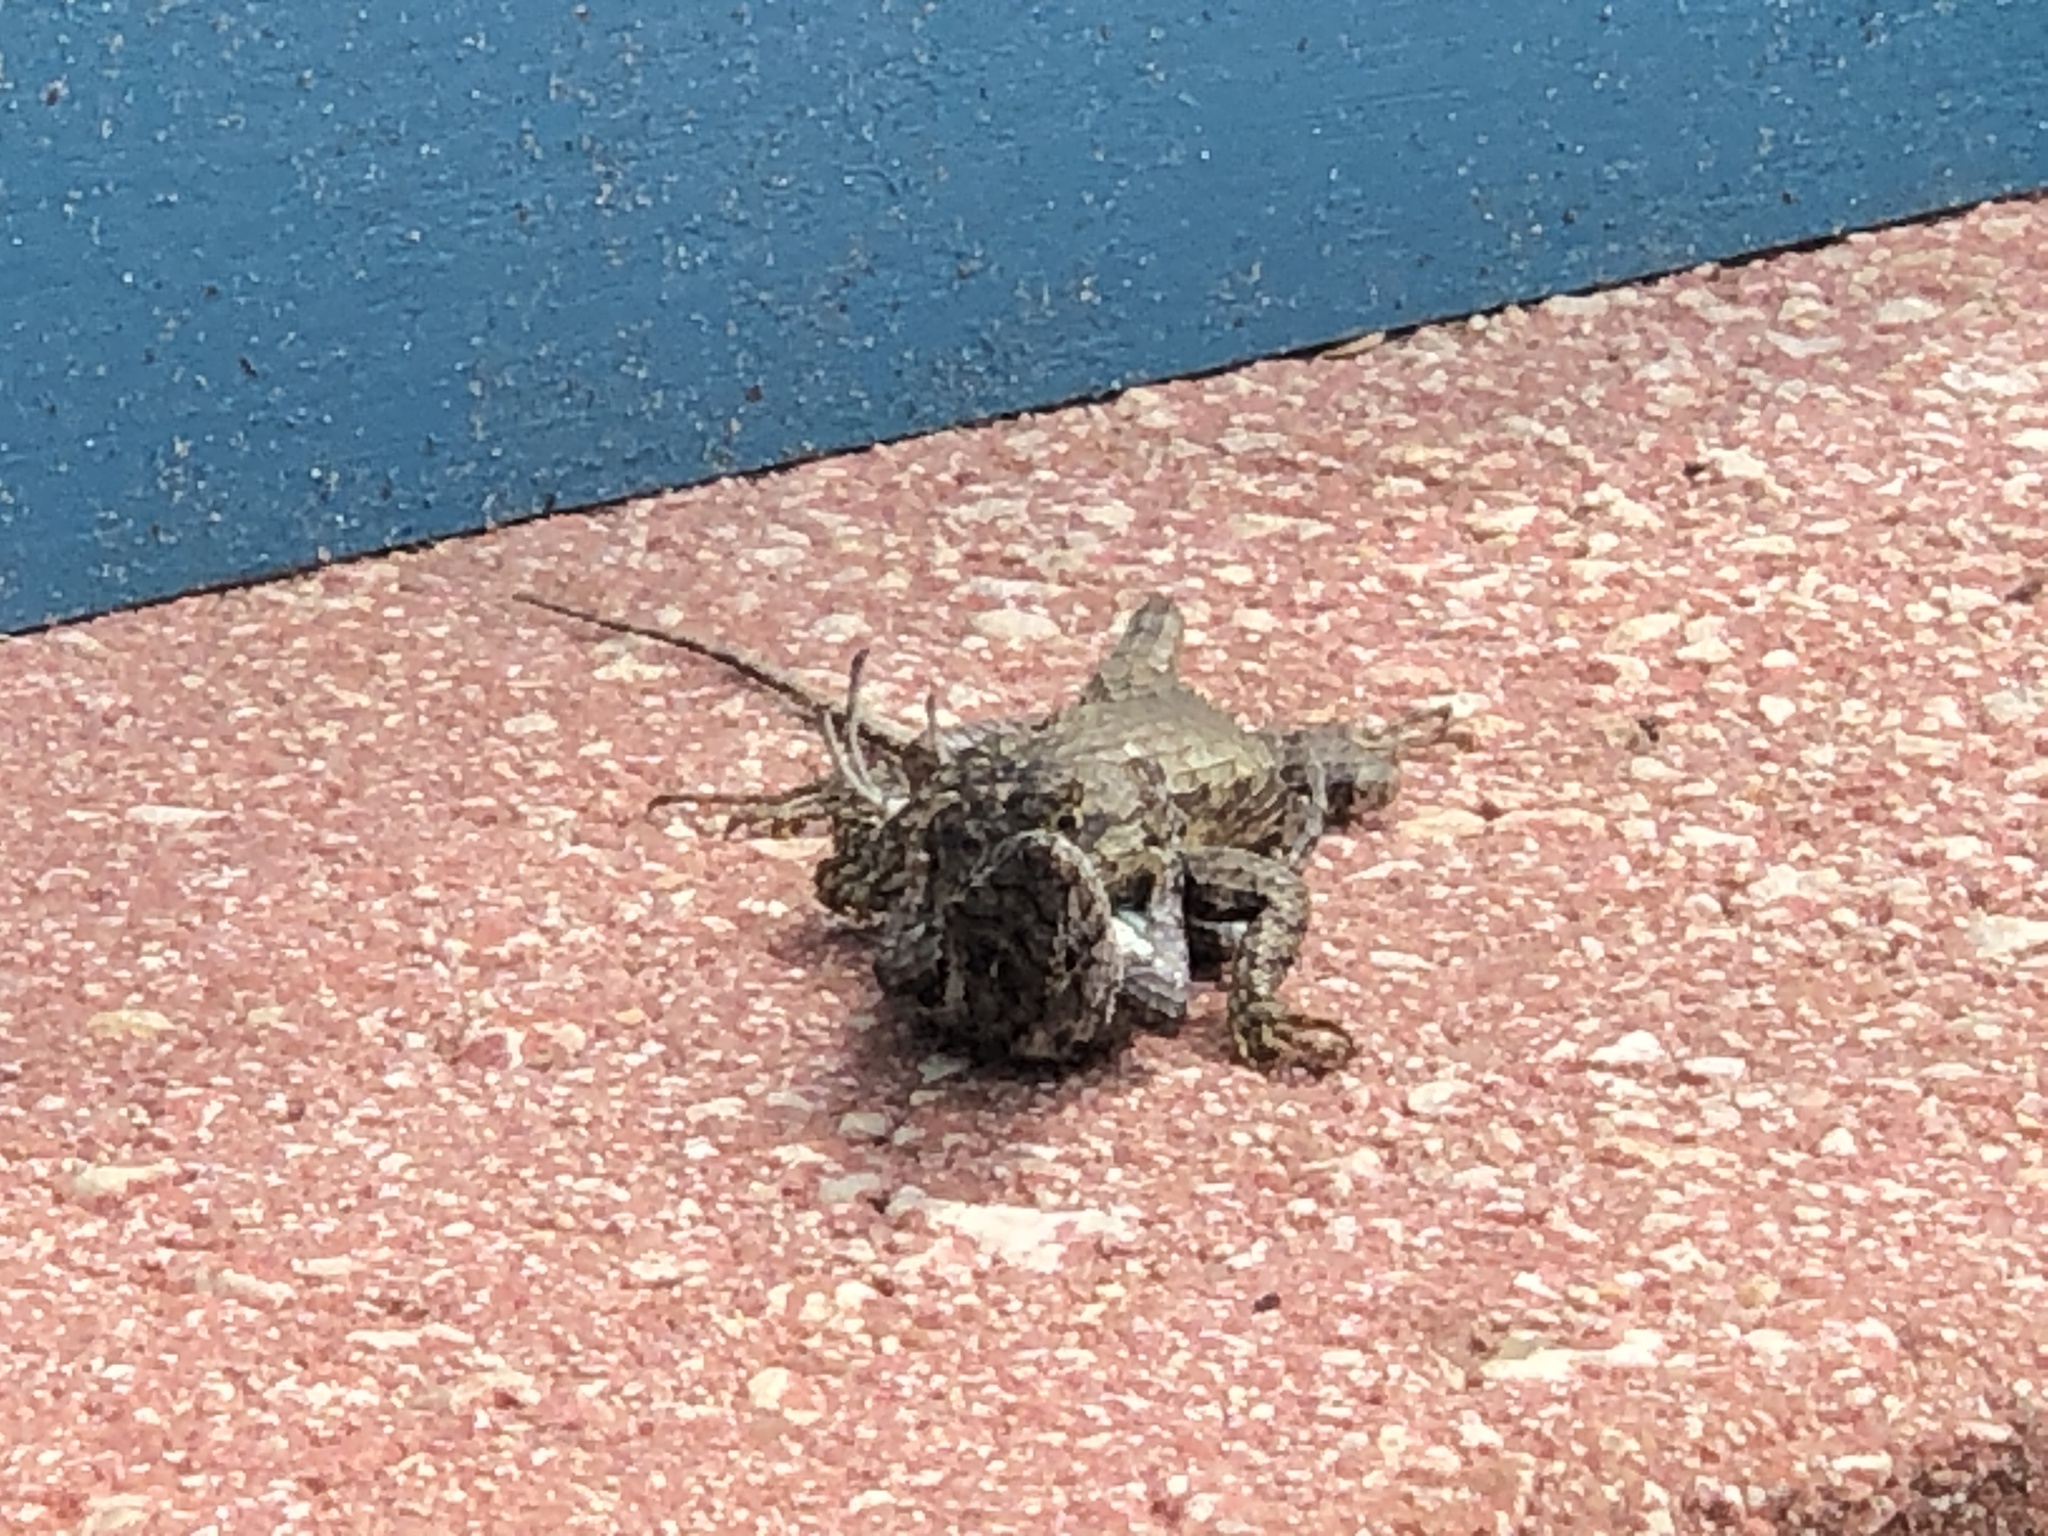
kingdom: Animalia
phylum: Chordata
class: Squamata
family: Phrynosomatidae
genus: Sceloporus
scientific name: Sceloporus undulatus
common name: Eastern fence lizard
